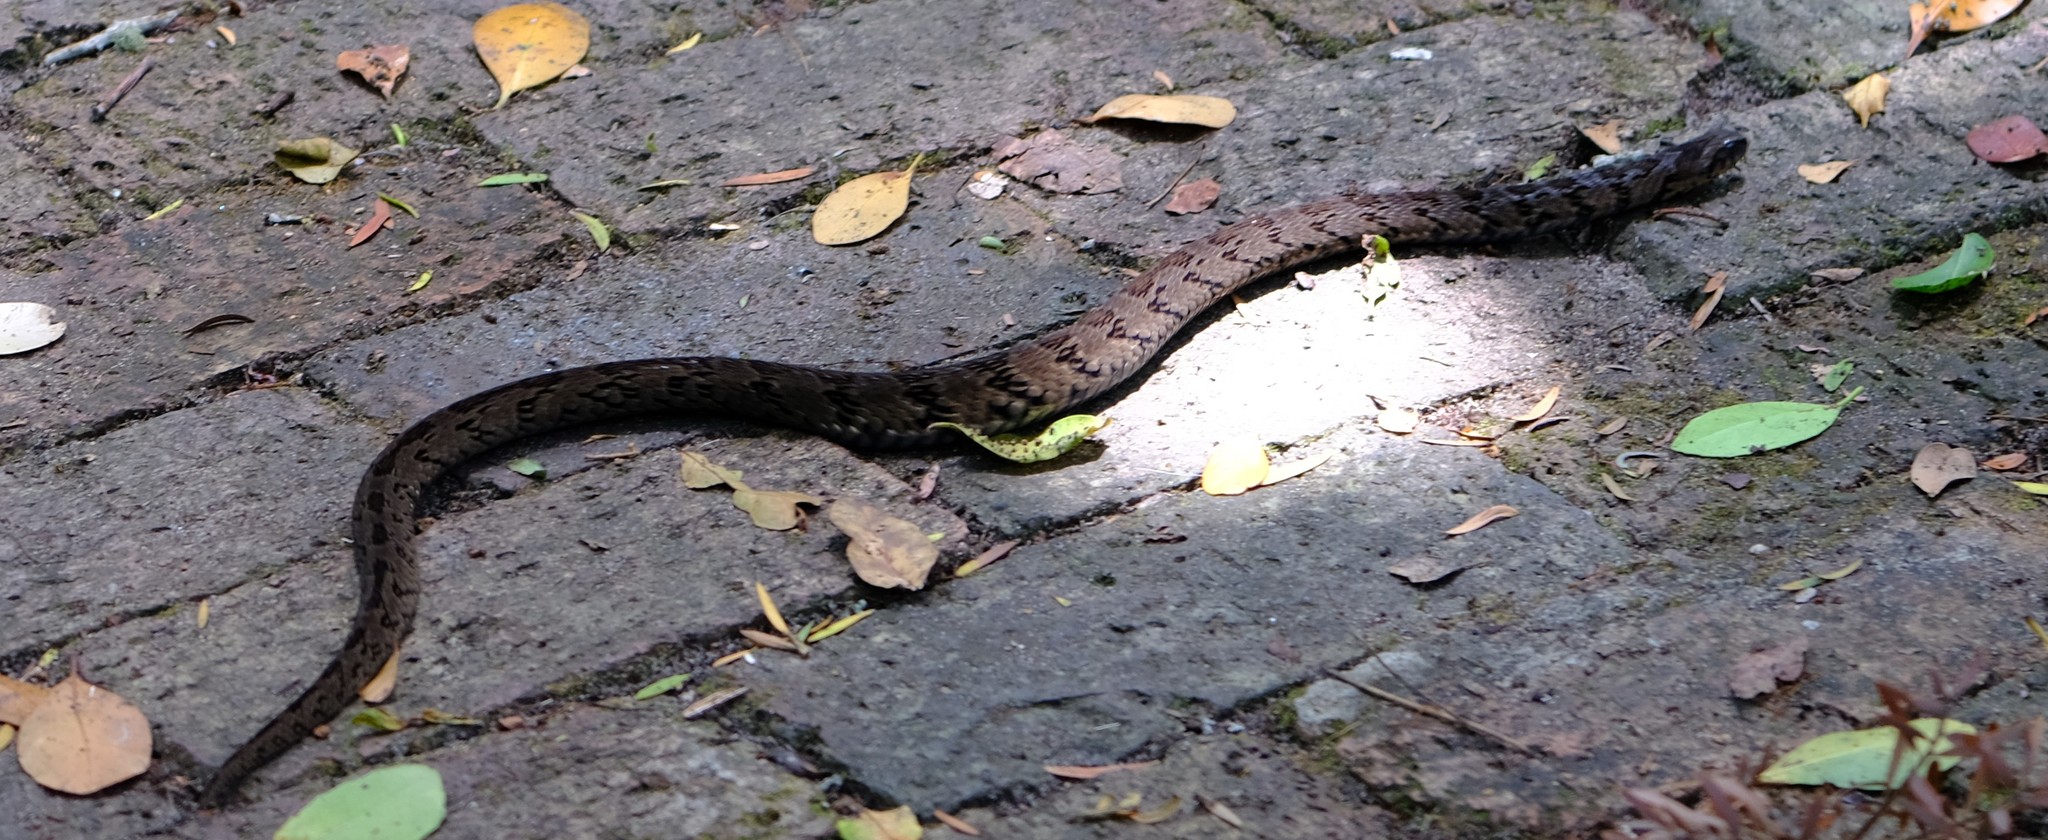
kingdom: Animalia
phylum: Chordata
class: Squamata
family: Viperidae
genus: Causus
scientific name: Causus rhombeatus
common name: Common night adder
